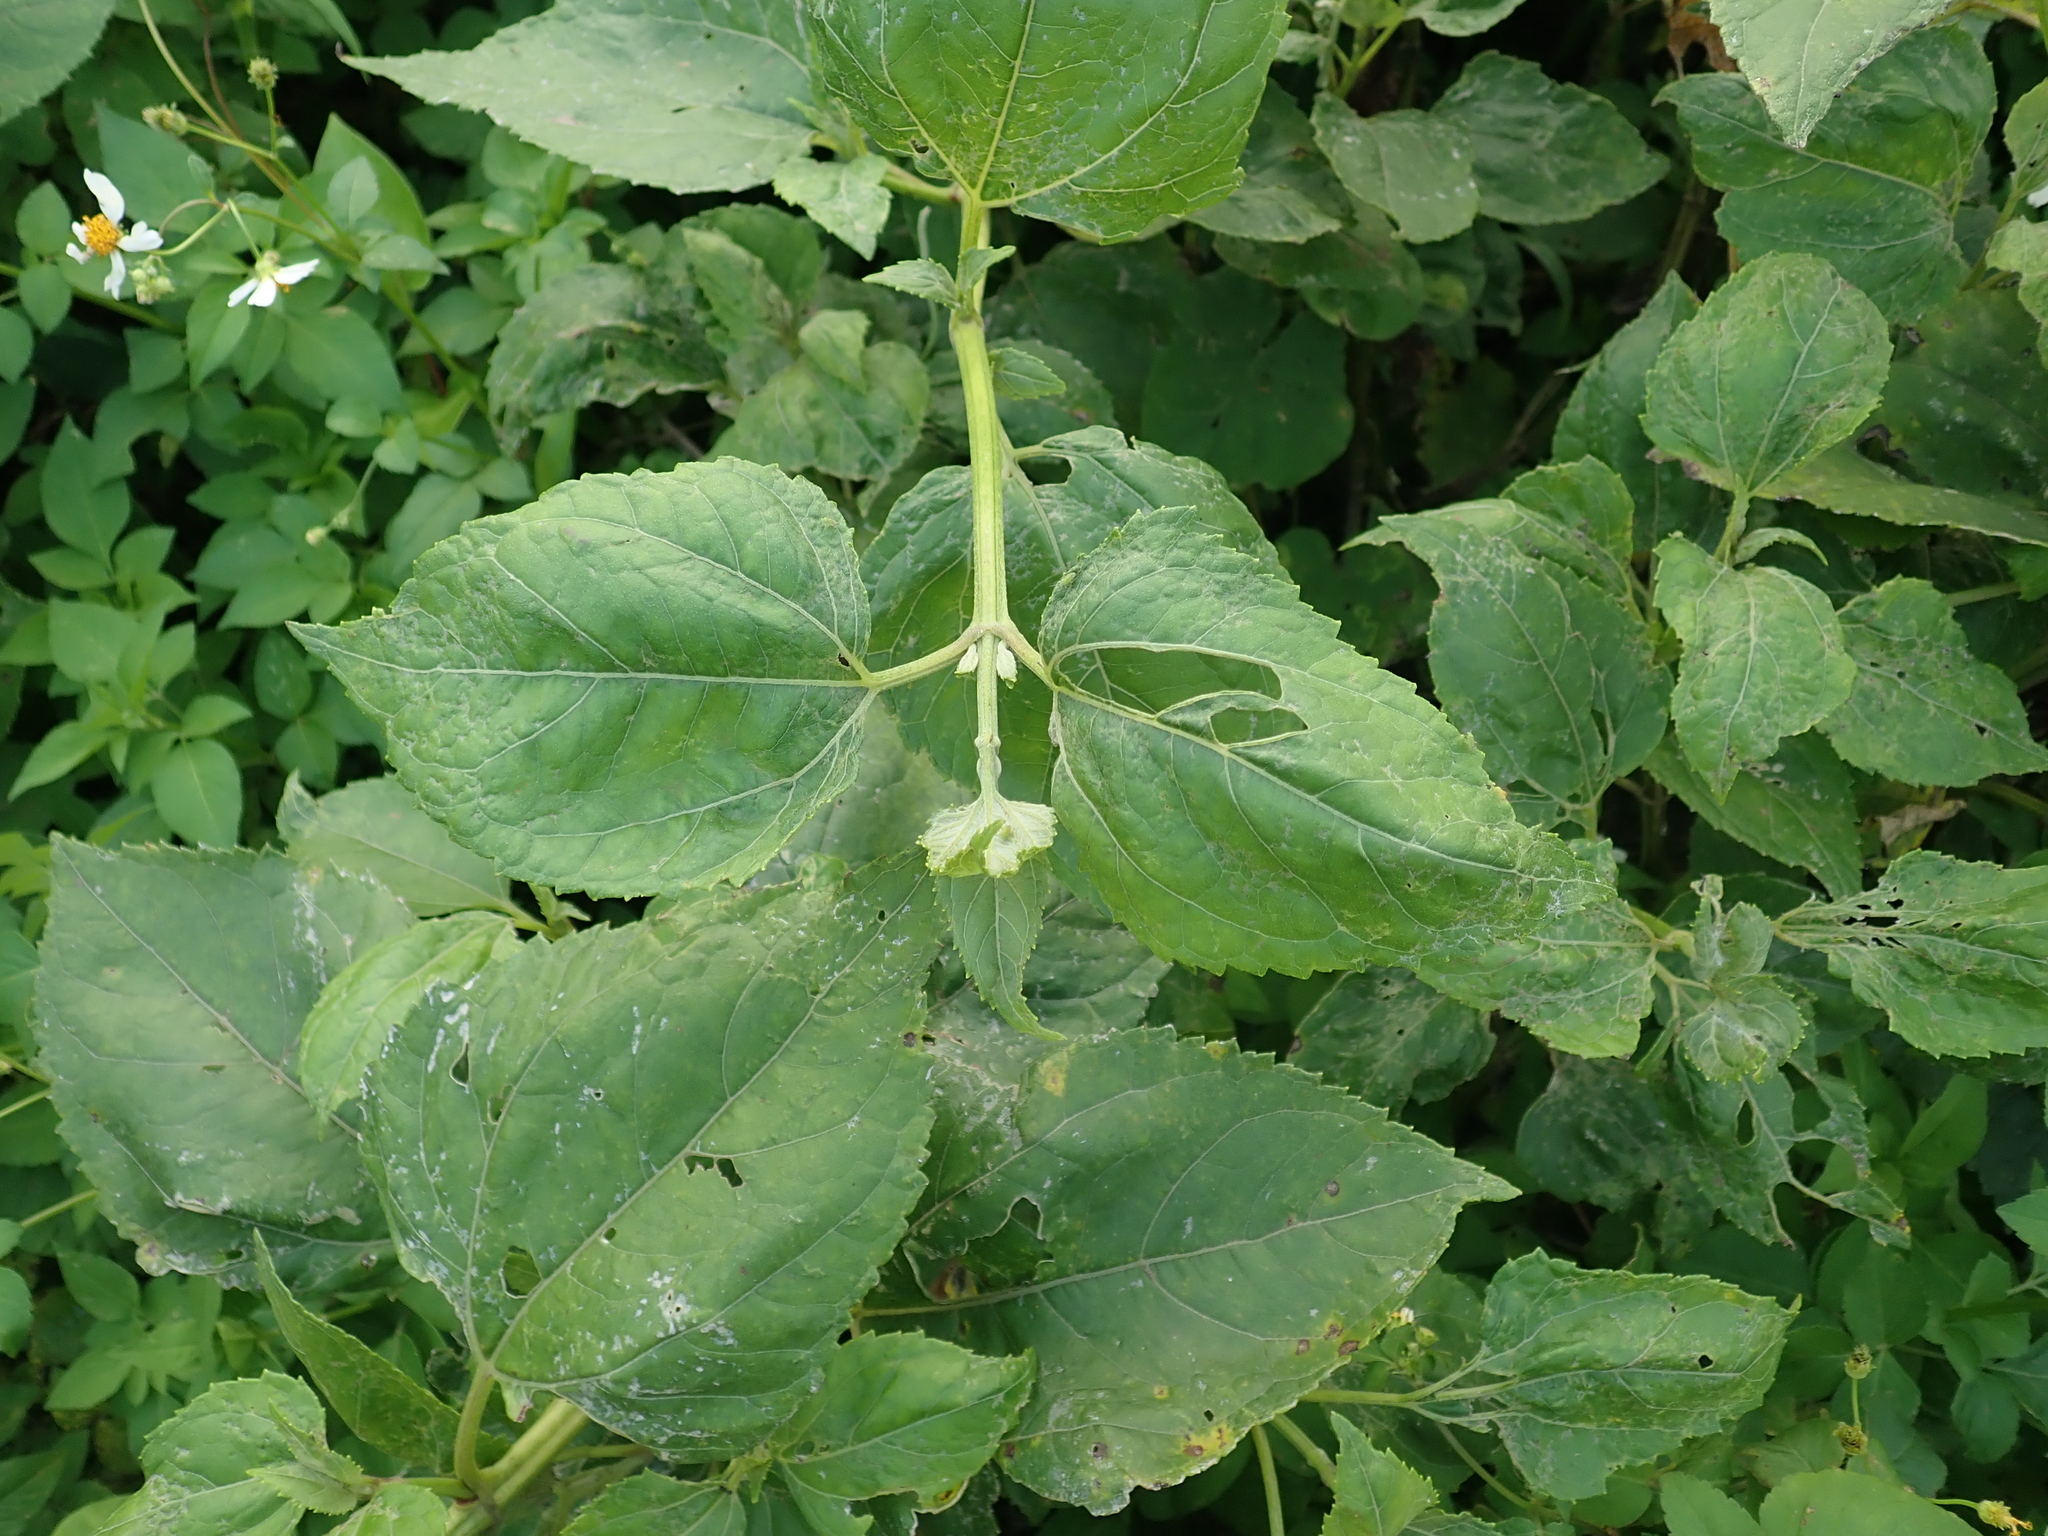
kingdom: Plantae
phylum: Tracheophyta
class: Magnoliopsida
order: Asterales
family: Asteraceae
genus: Wollastonia
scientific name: Wollastonia biflora
